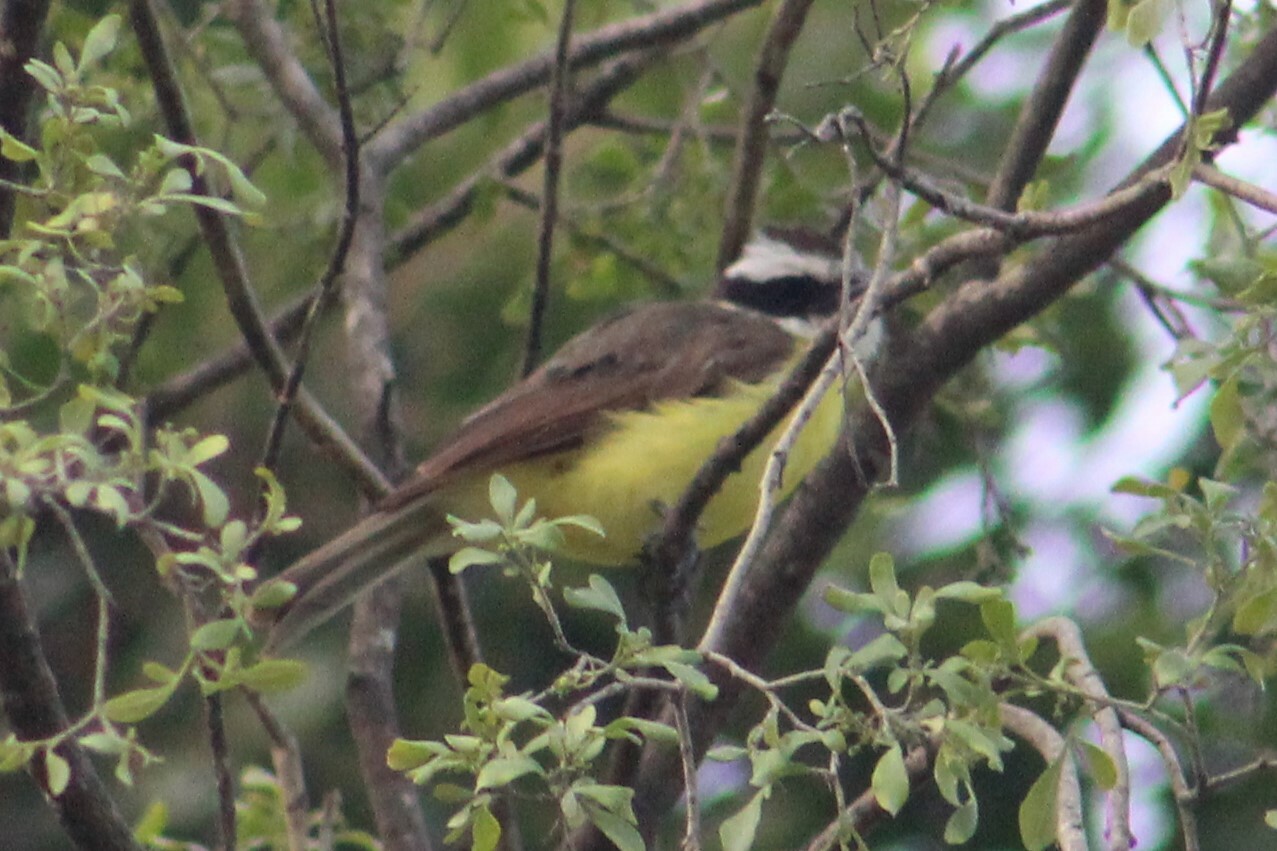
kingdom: Animalia
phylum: Chordata
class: Aves
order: Passeriformes
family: Tyrannidae
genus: Myiozetetes
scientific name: Myiozetetes similis
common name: Social flycatcher
